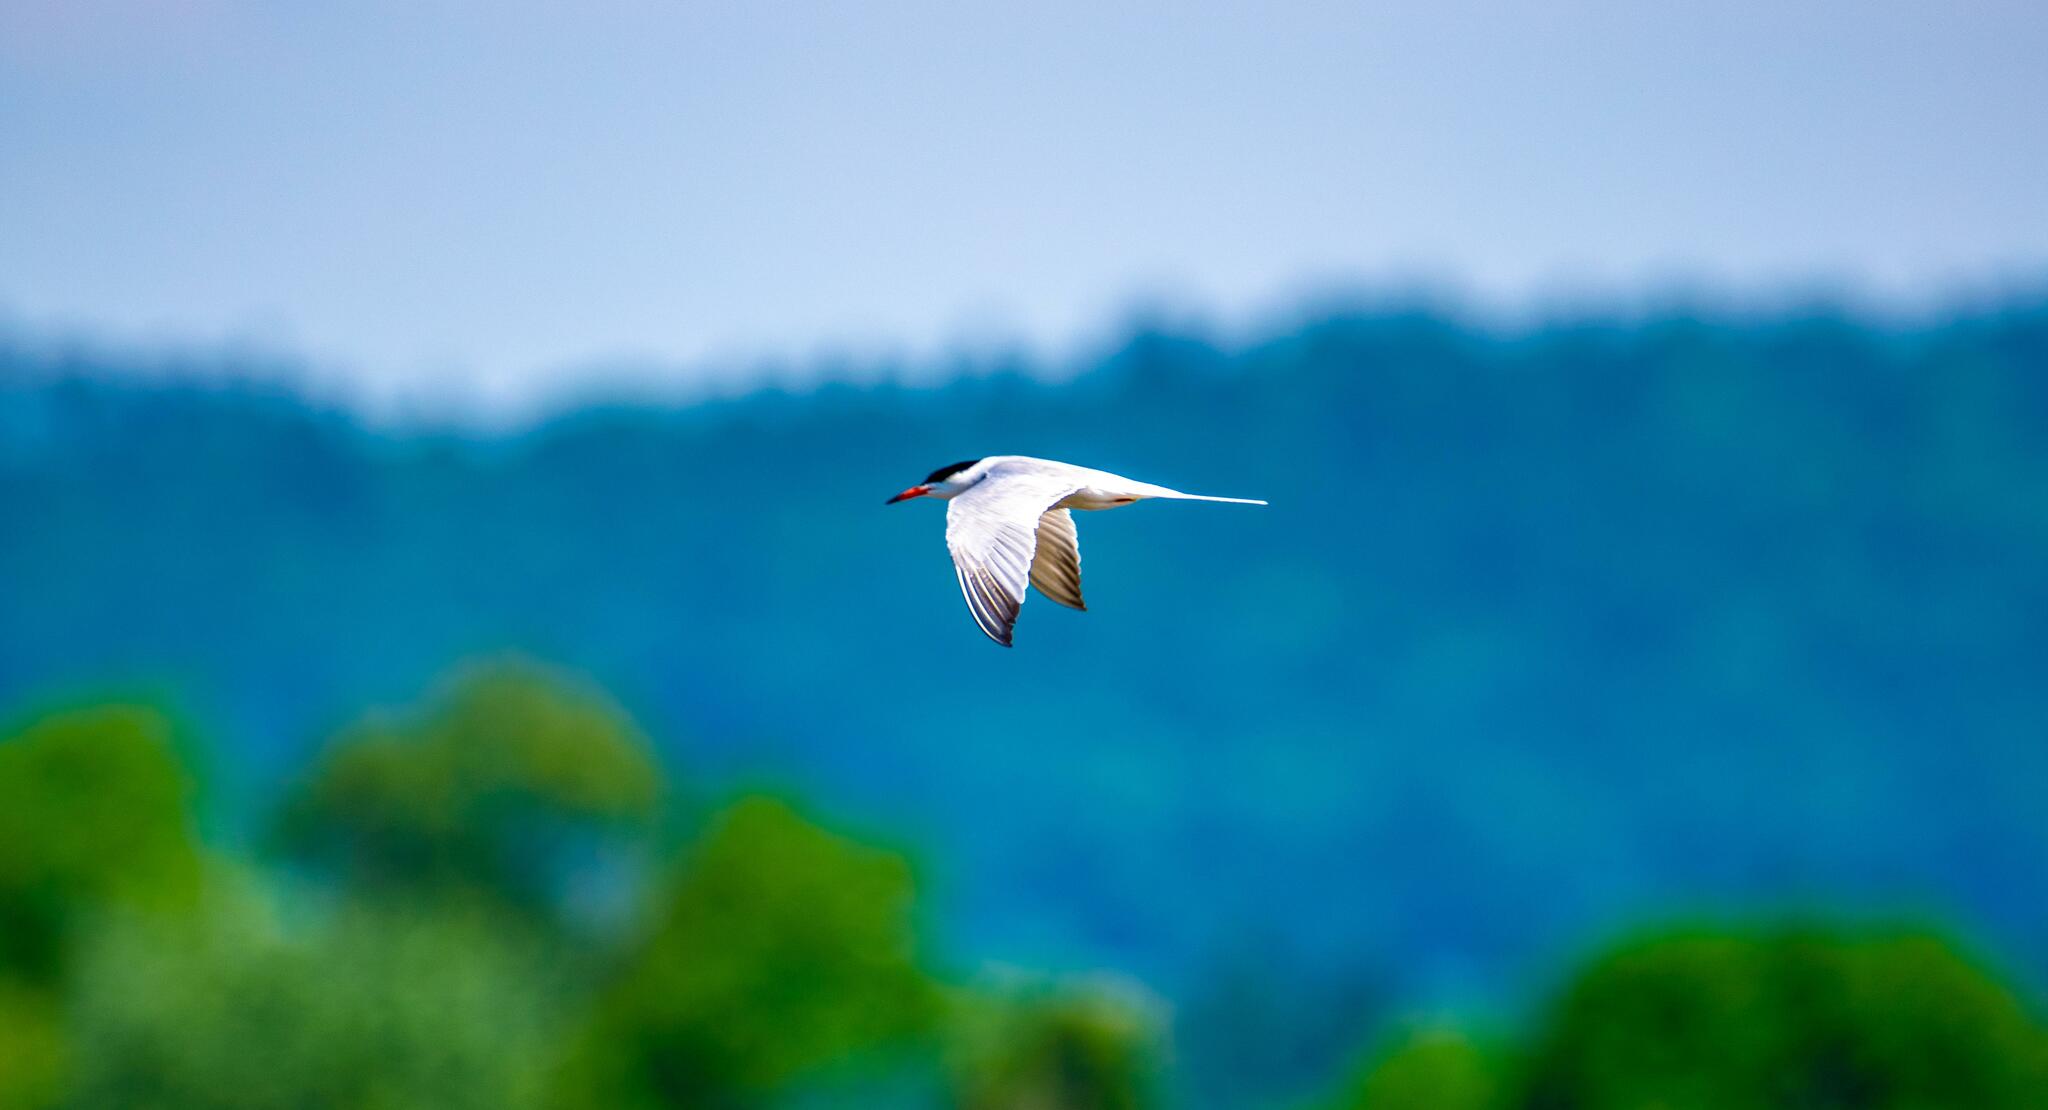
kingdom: Animalia
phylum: Chordata
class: Aves
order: Charadriiformes
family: Laridae
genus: Sterna
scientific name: Sterna hirundo
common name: Common tern
